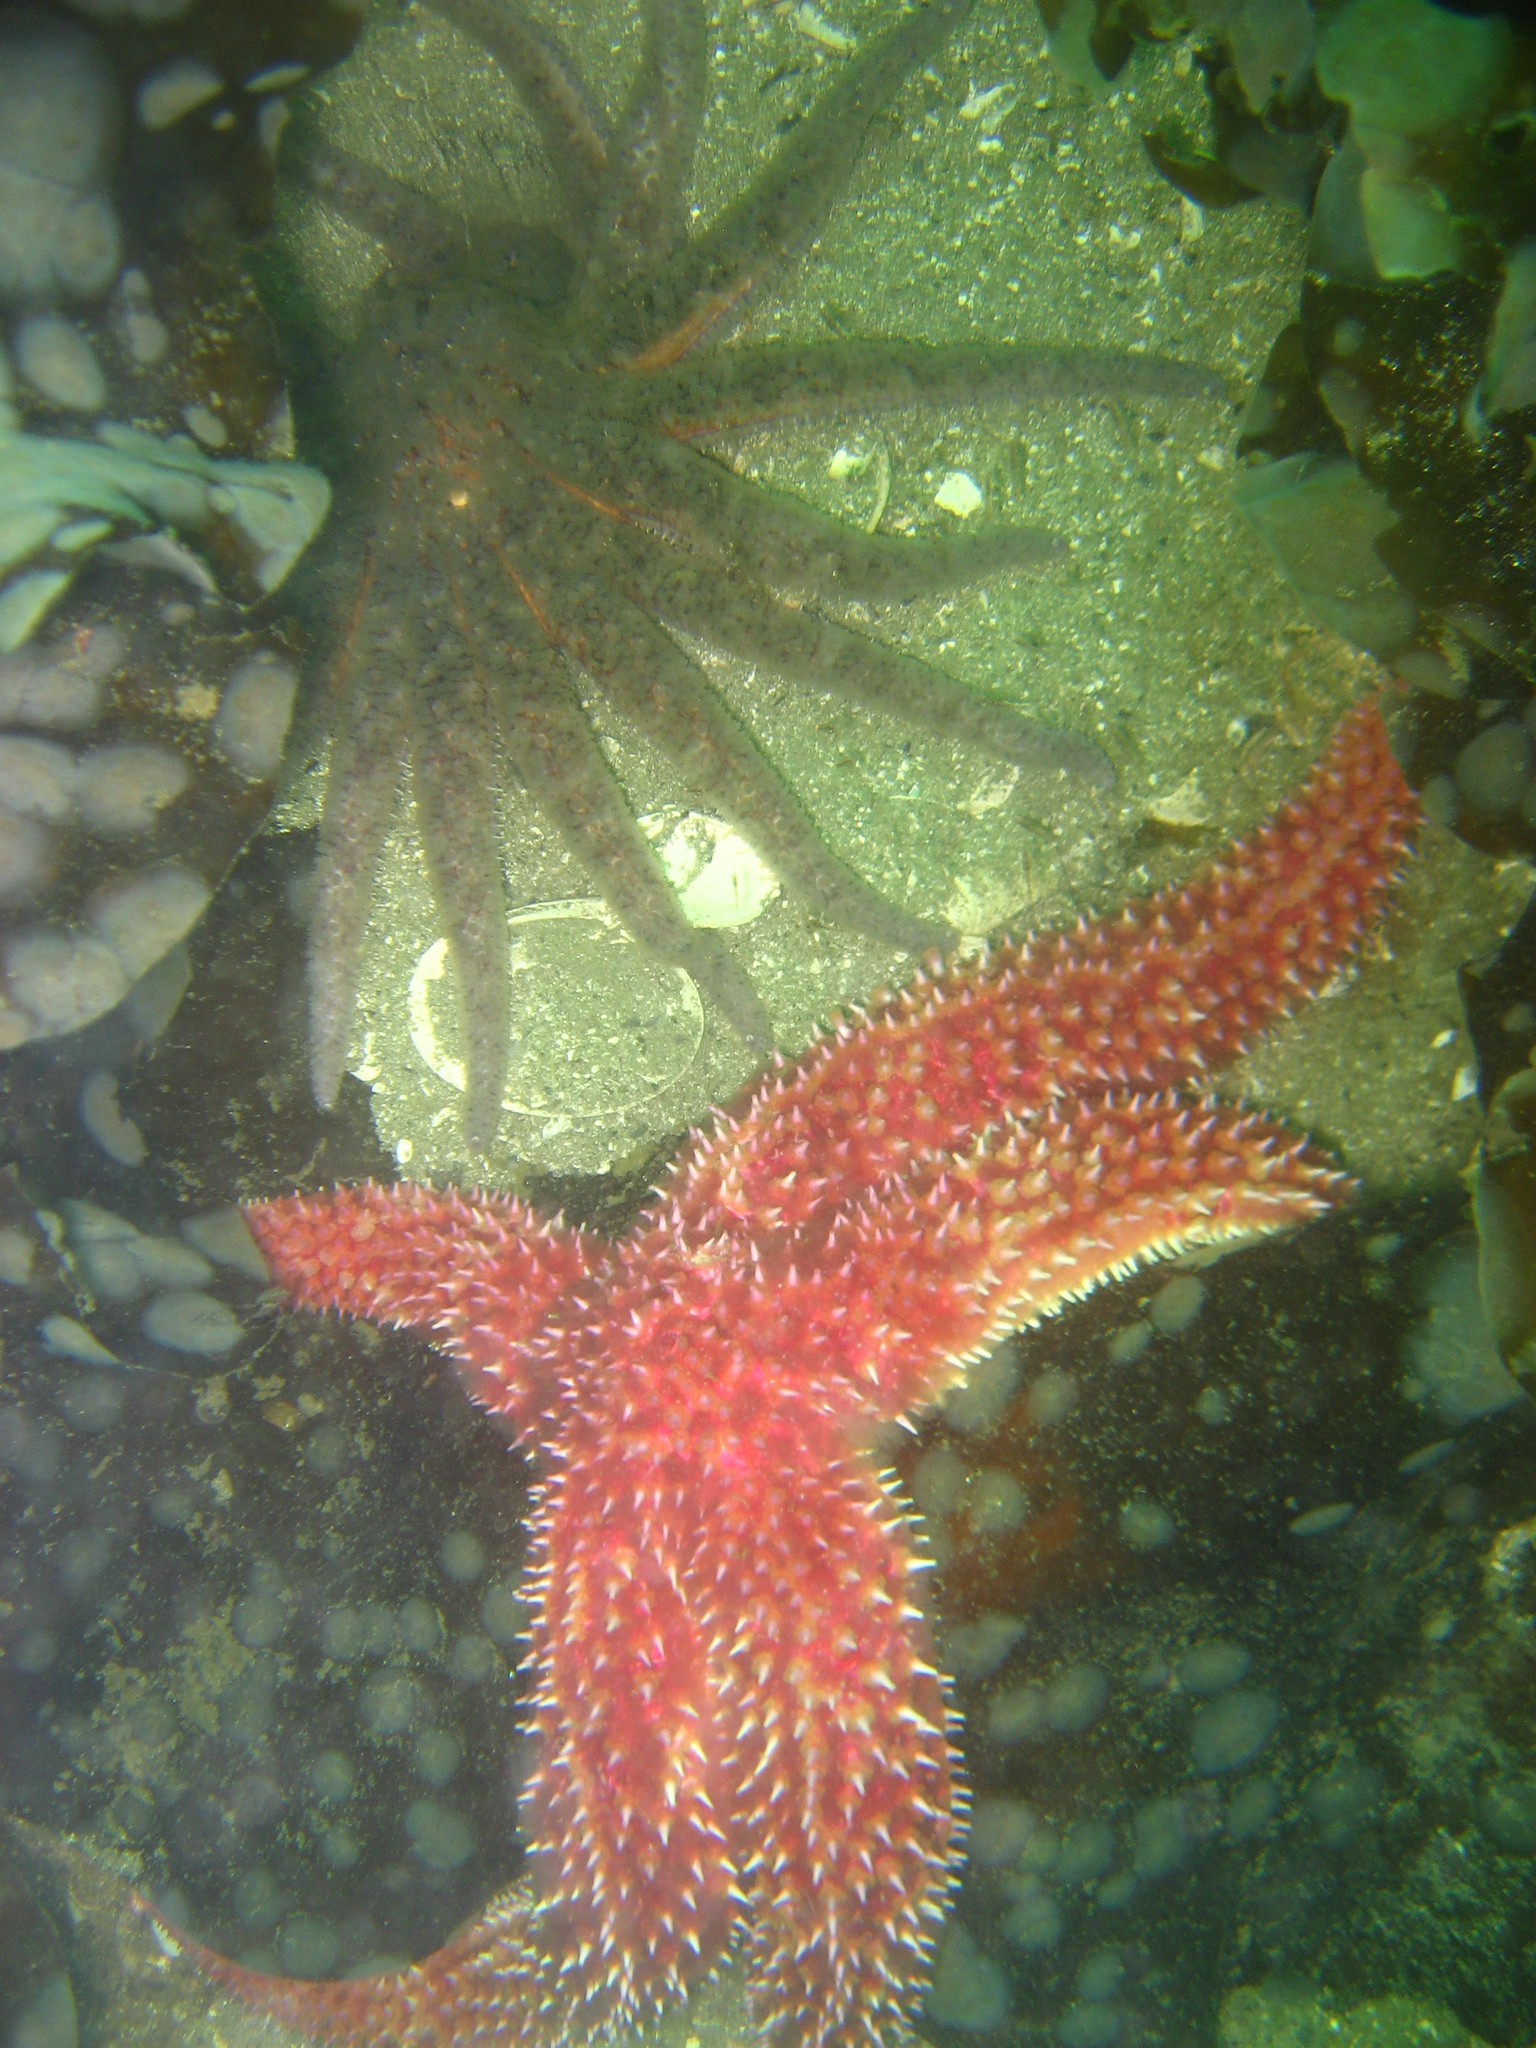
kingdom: Animalia
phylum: Echinodermata
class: Asteroidea
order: Forcipulatida
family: Asteriidae
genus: Orthasterias
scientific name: Orthasterias koehleri
